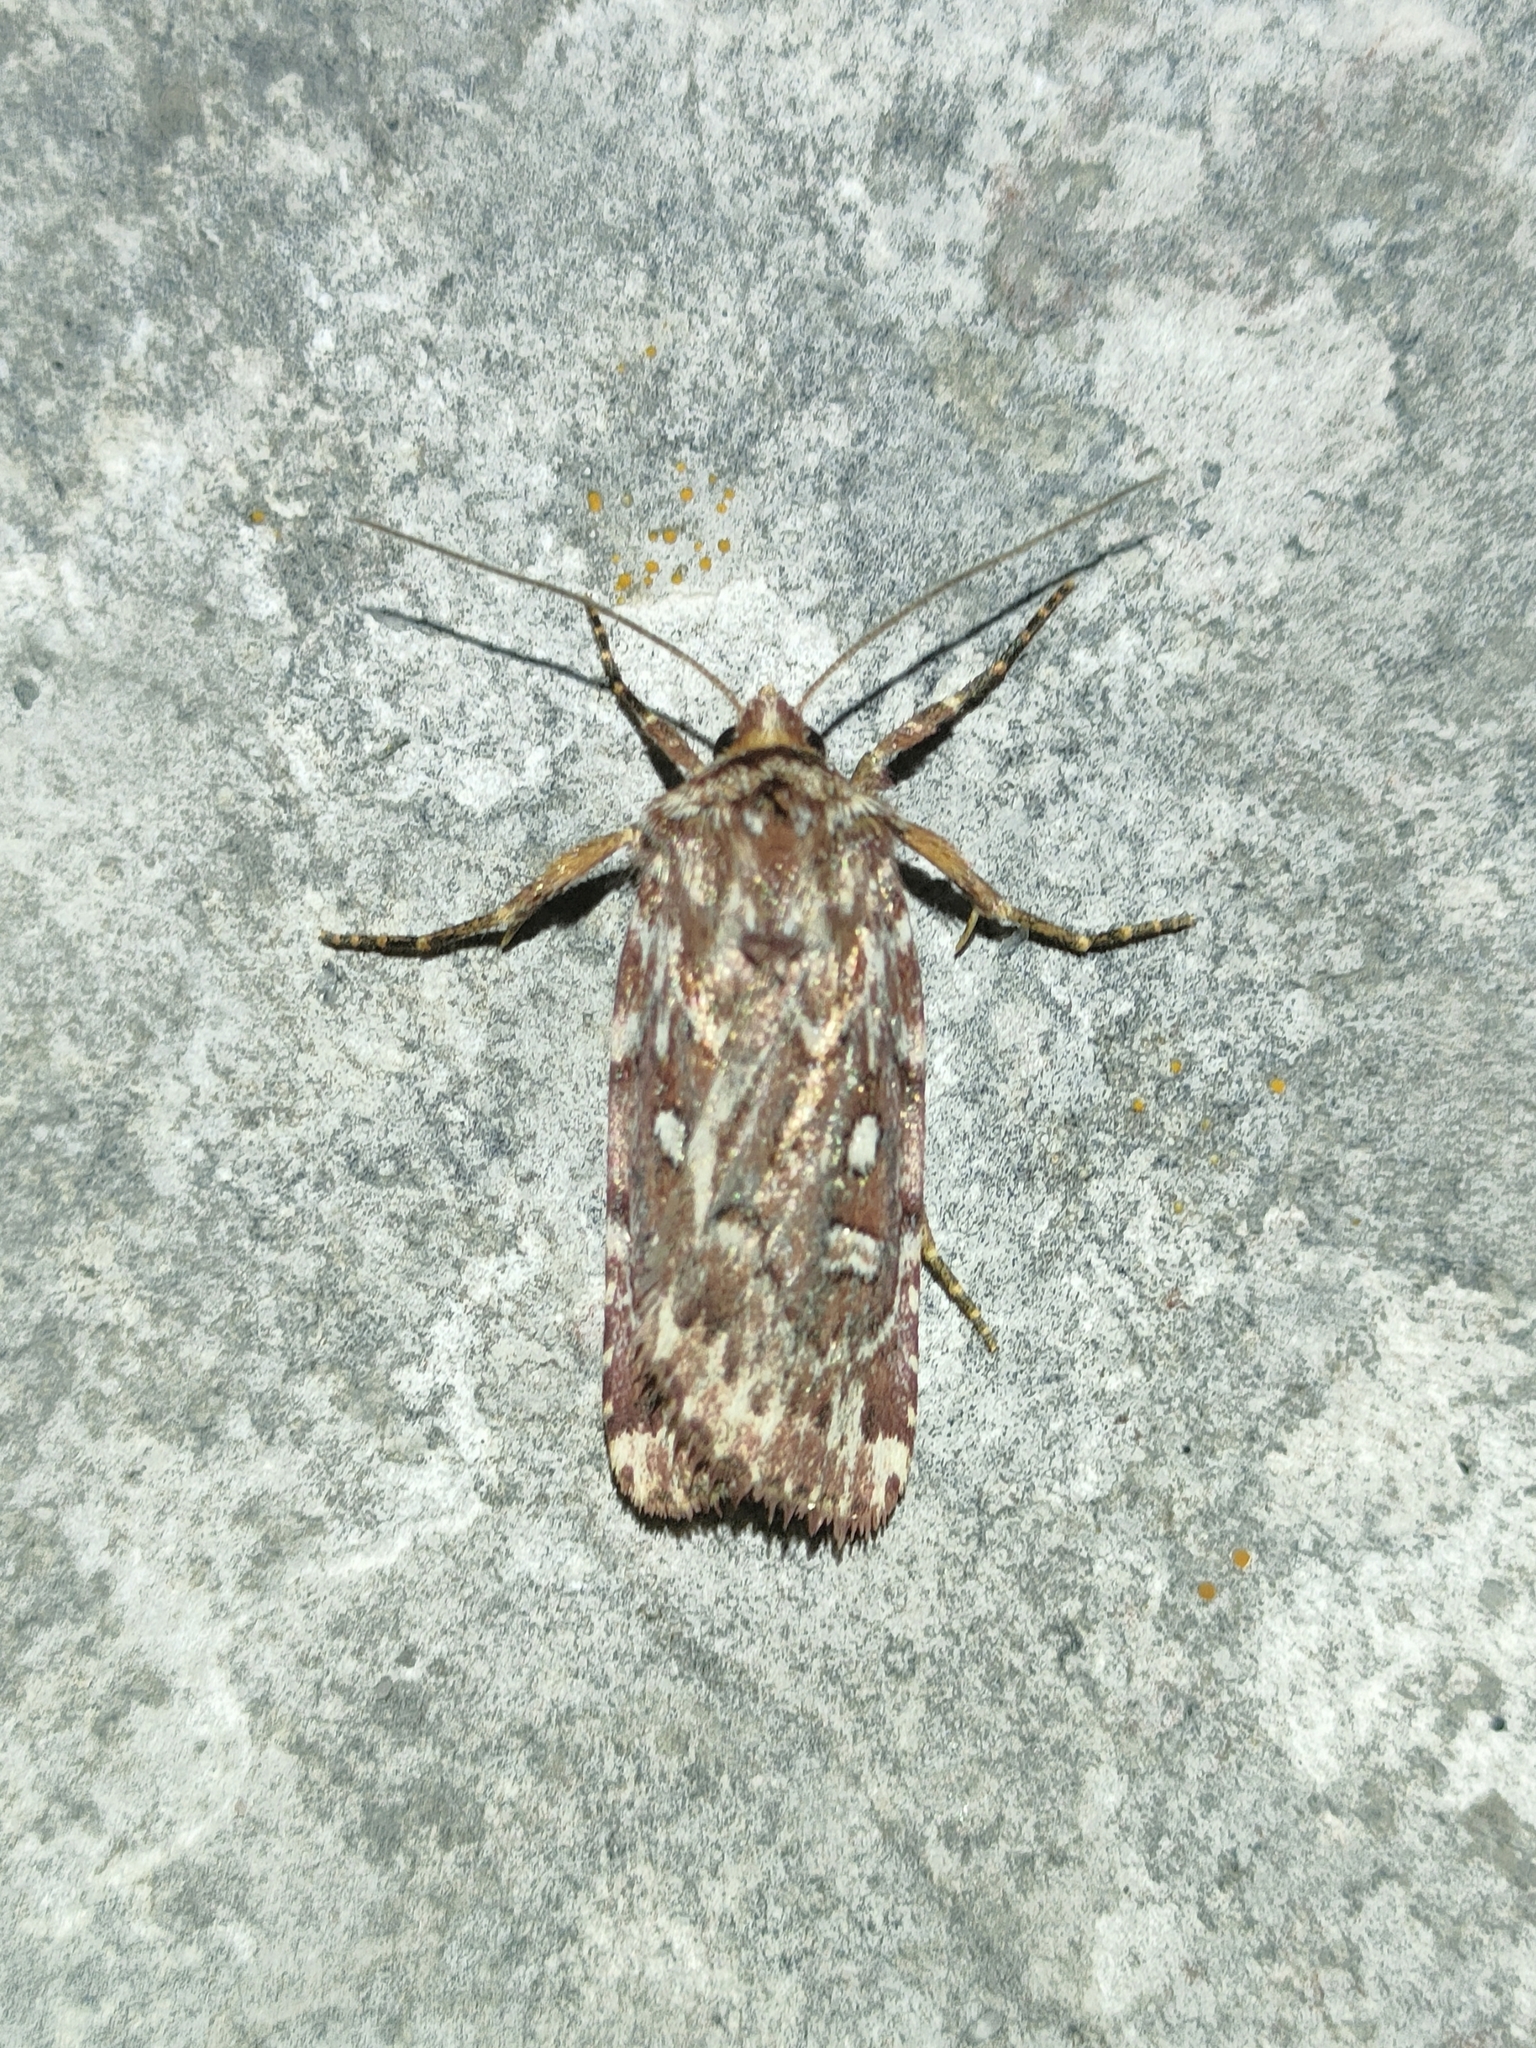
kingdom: Animalia
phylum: Arthropoda
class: Insecta
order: Lepidoptera
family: Noctuidae
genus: Lycophotia
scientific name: Lycophotia porphyrea
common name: True lover's knot
